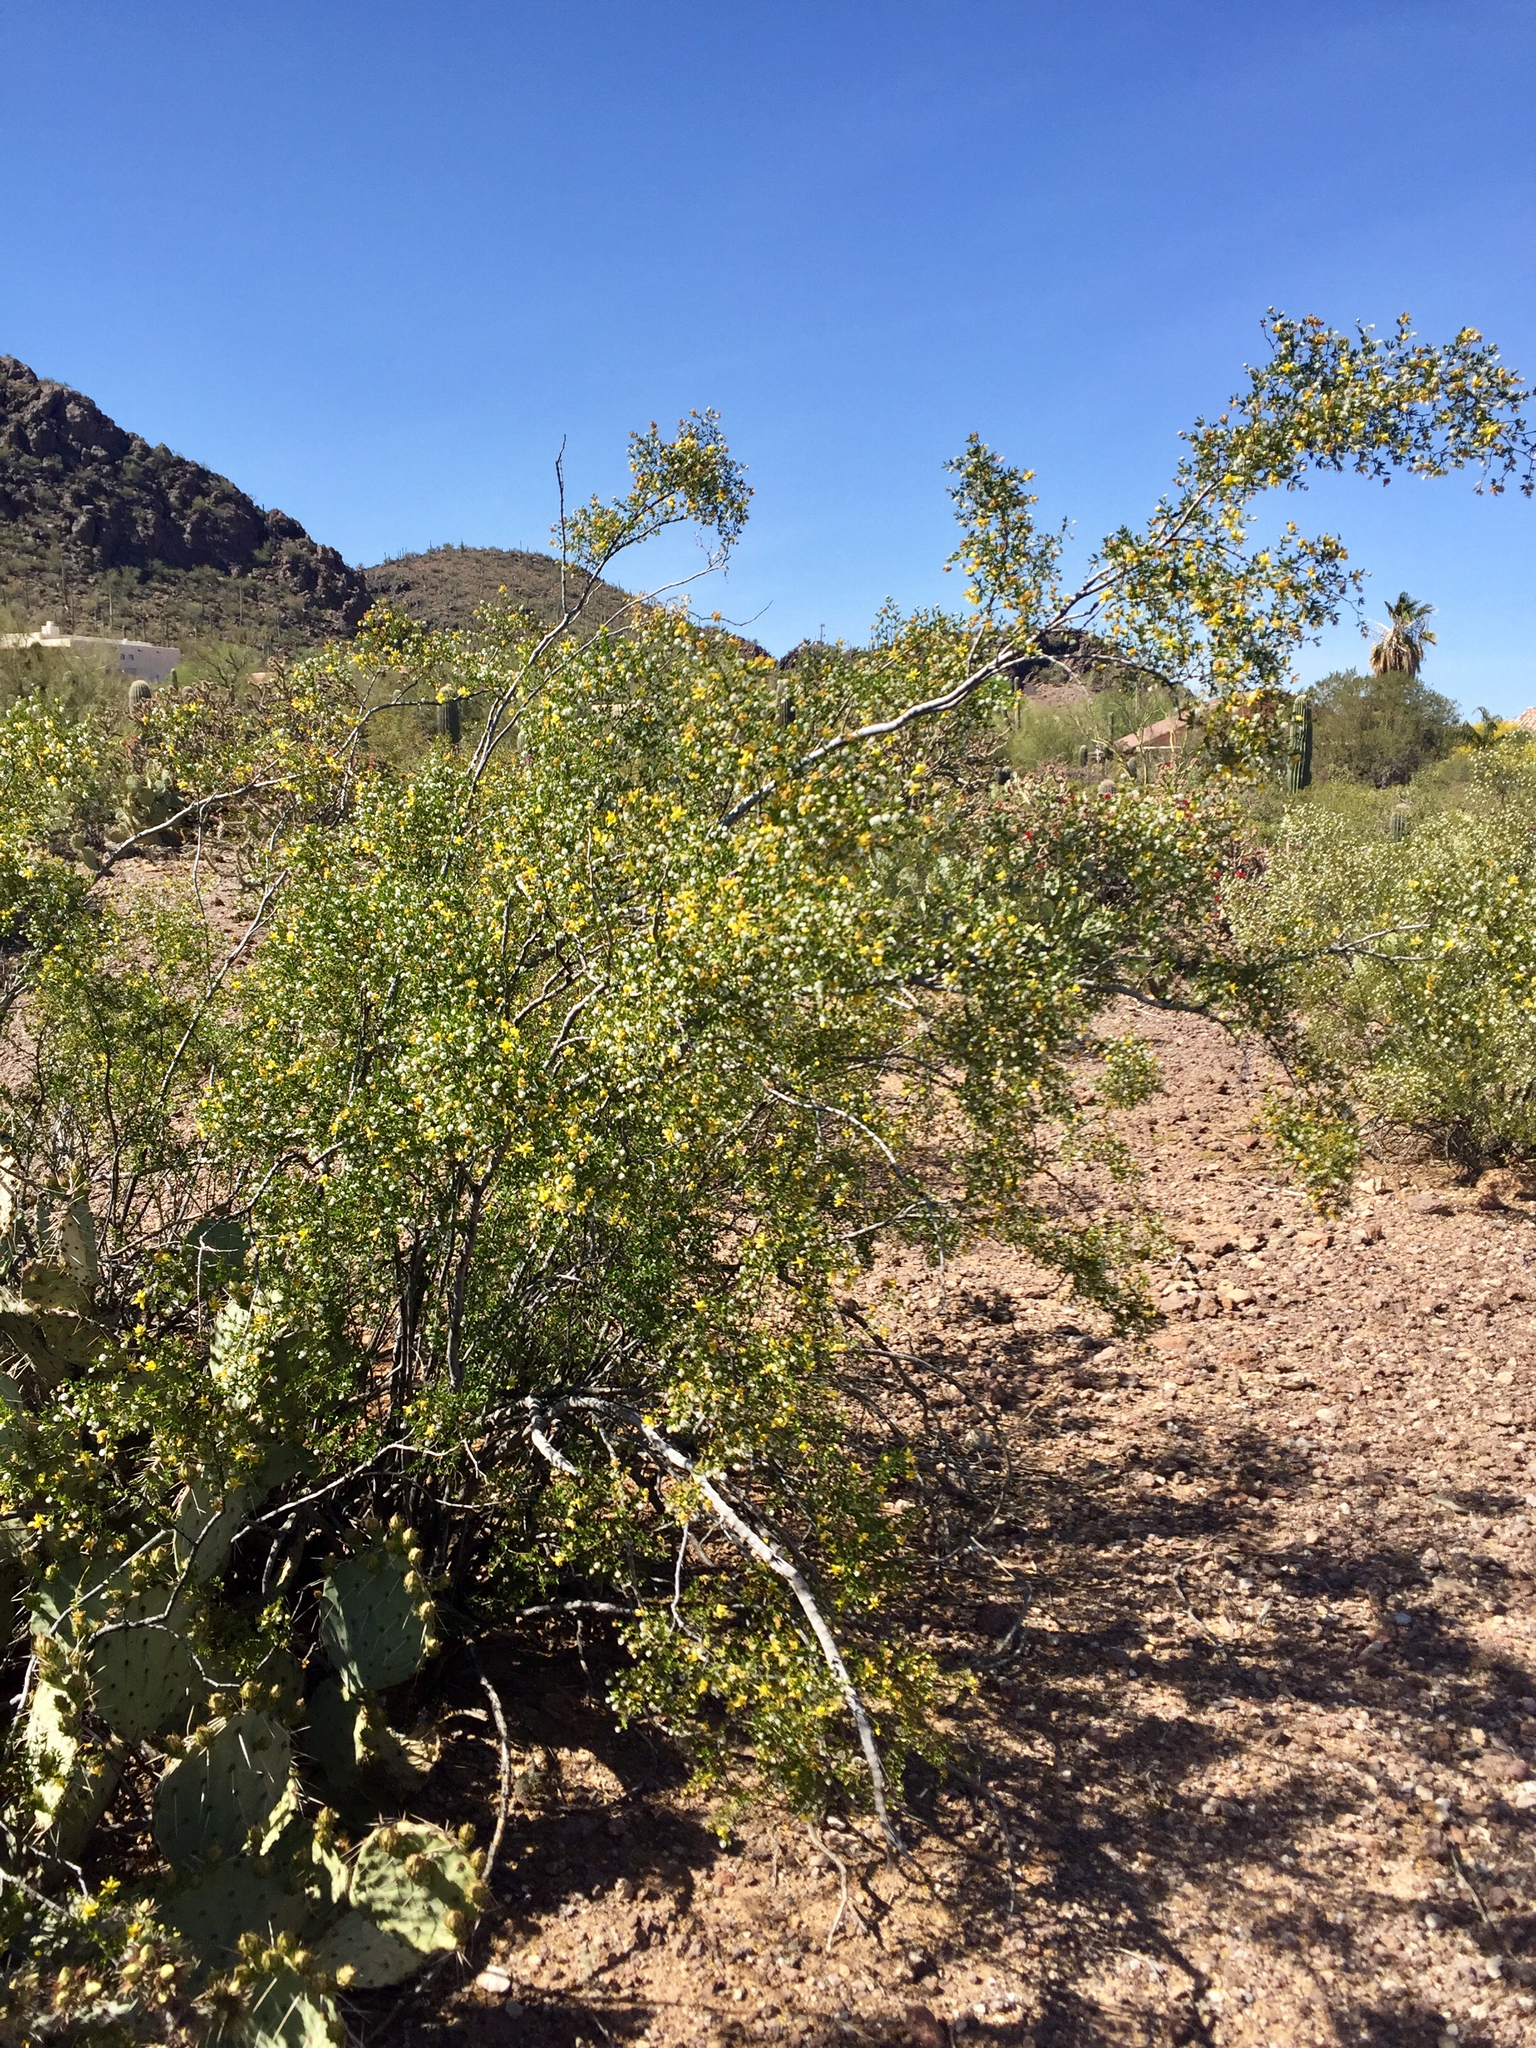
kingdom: Plantae
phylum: Tracheophyta
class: Magnoliopsida
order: Zygophyllales
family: Zygophyllaceae
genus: Larrea
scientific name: Larrea tridentata
